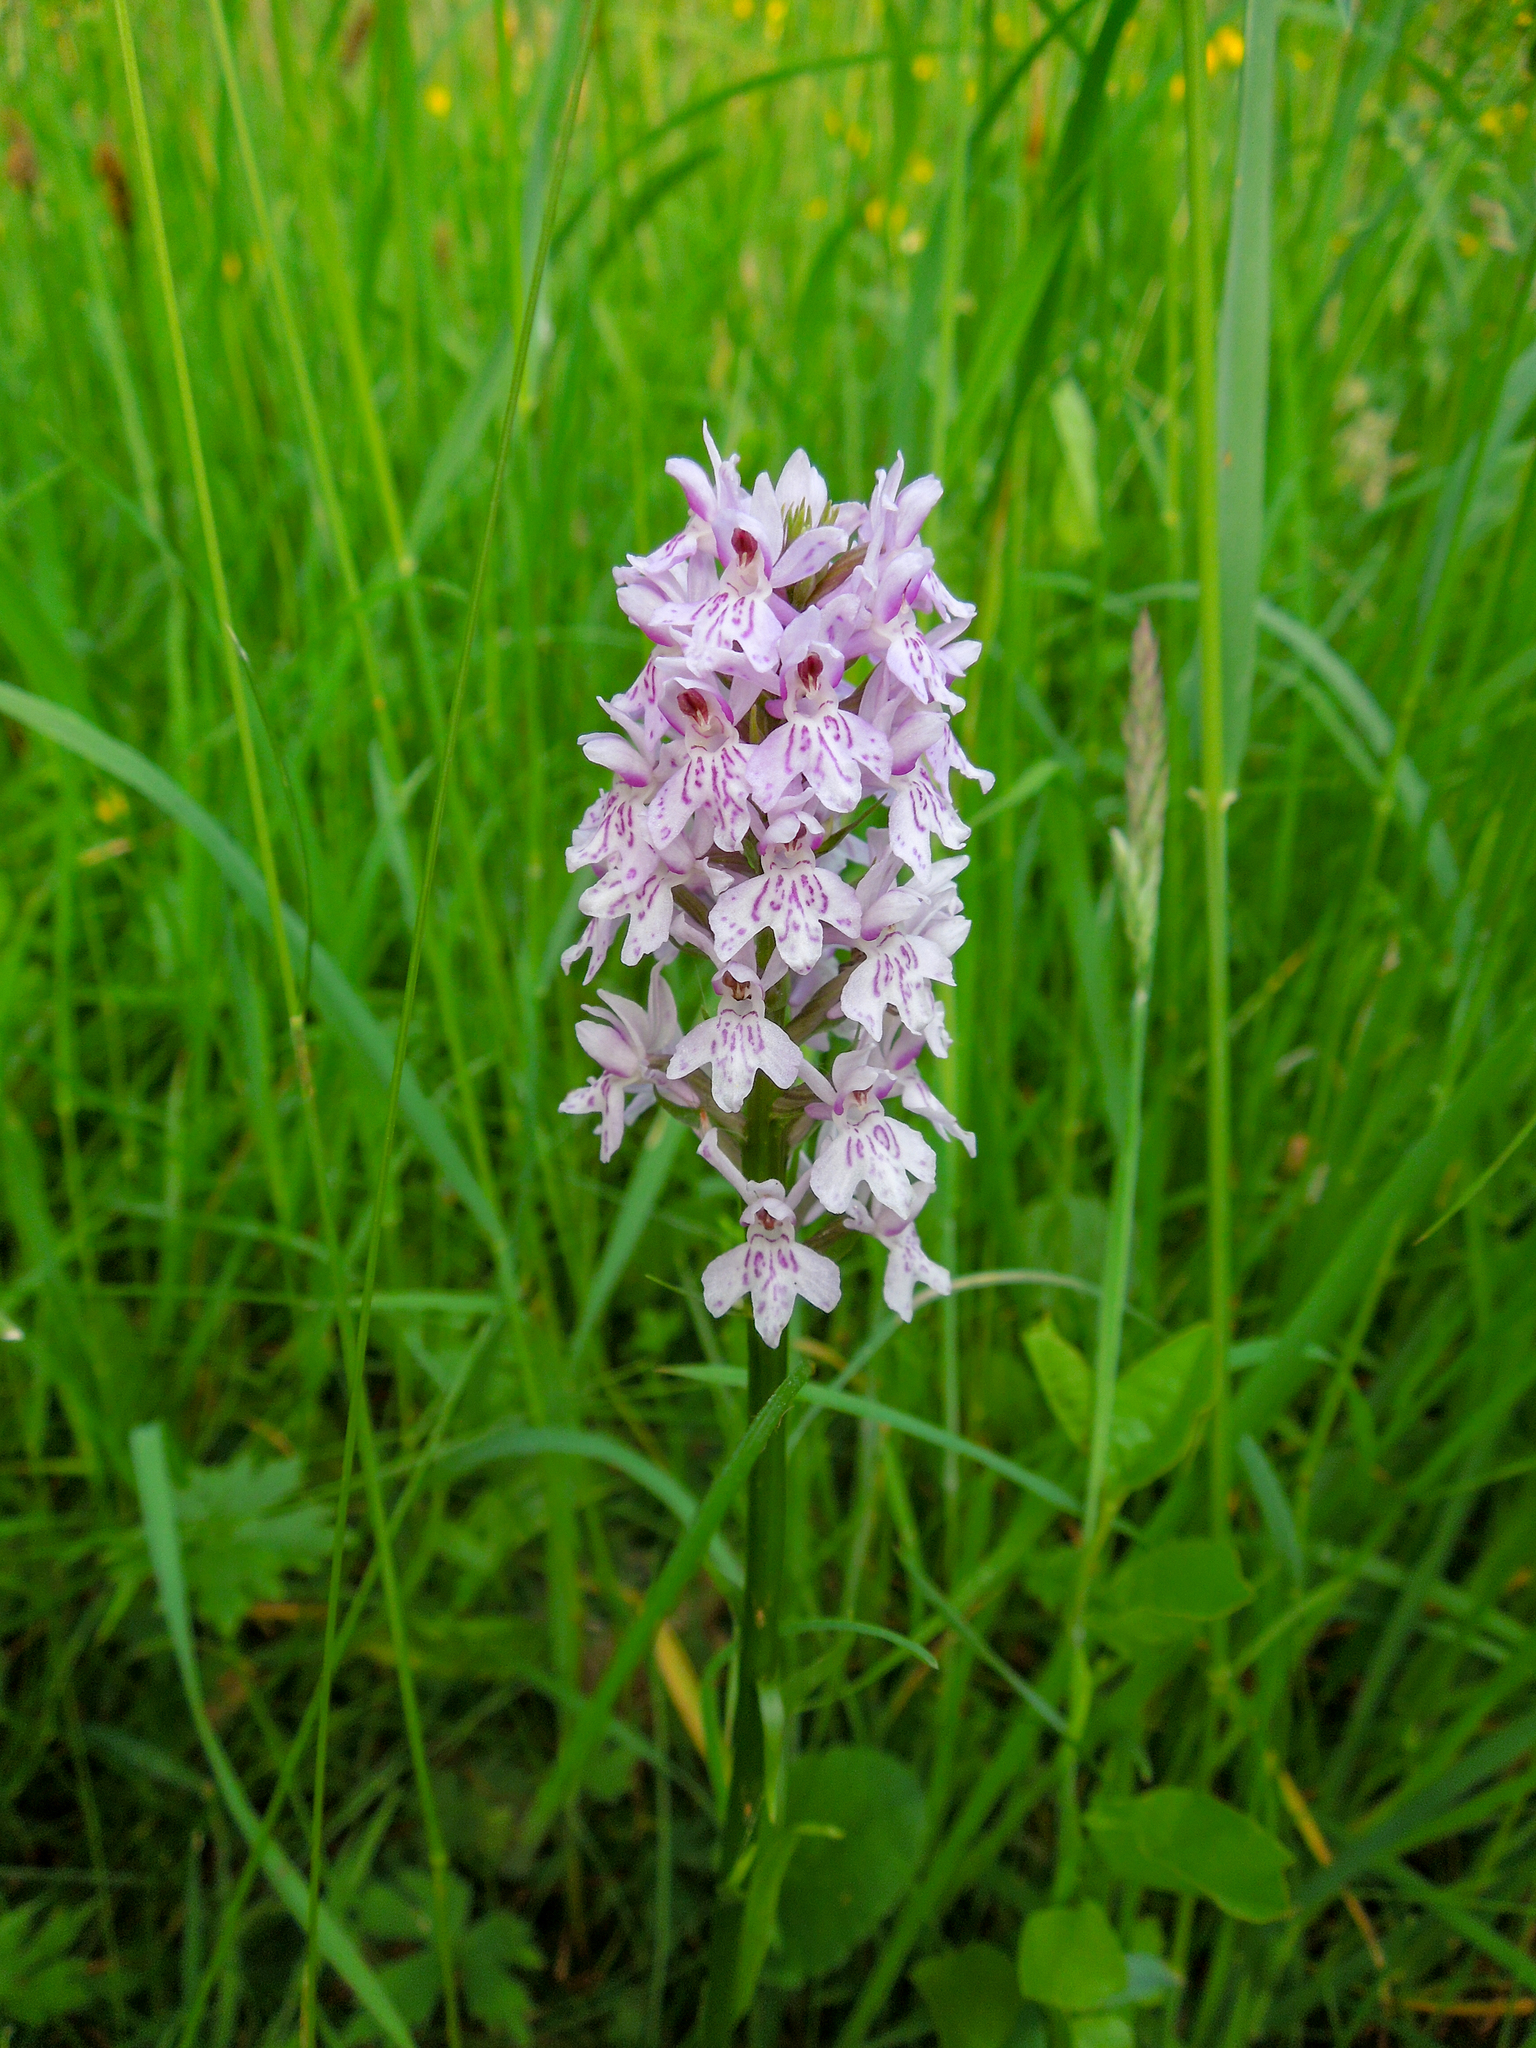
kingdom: Plantae
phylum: Tracheophyta
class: Liliopsida
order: Asparagales
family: Orchidaceae
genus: Dactylorhiza
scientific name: Dactylorhiza maculata
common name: Heath spotted-orchid
